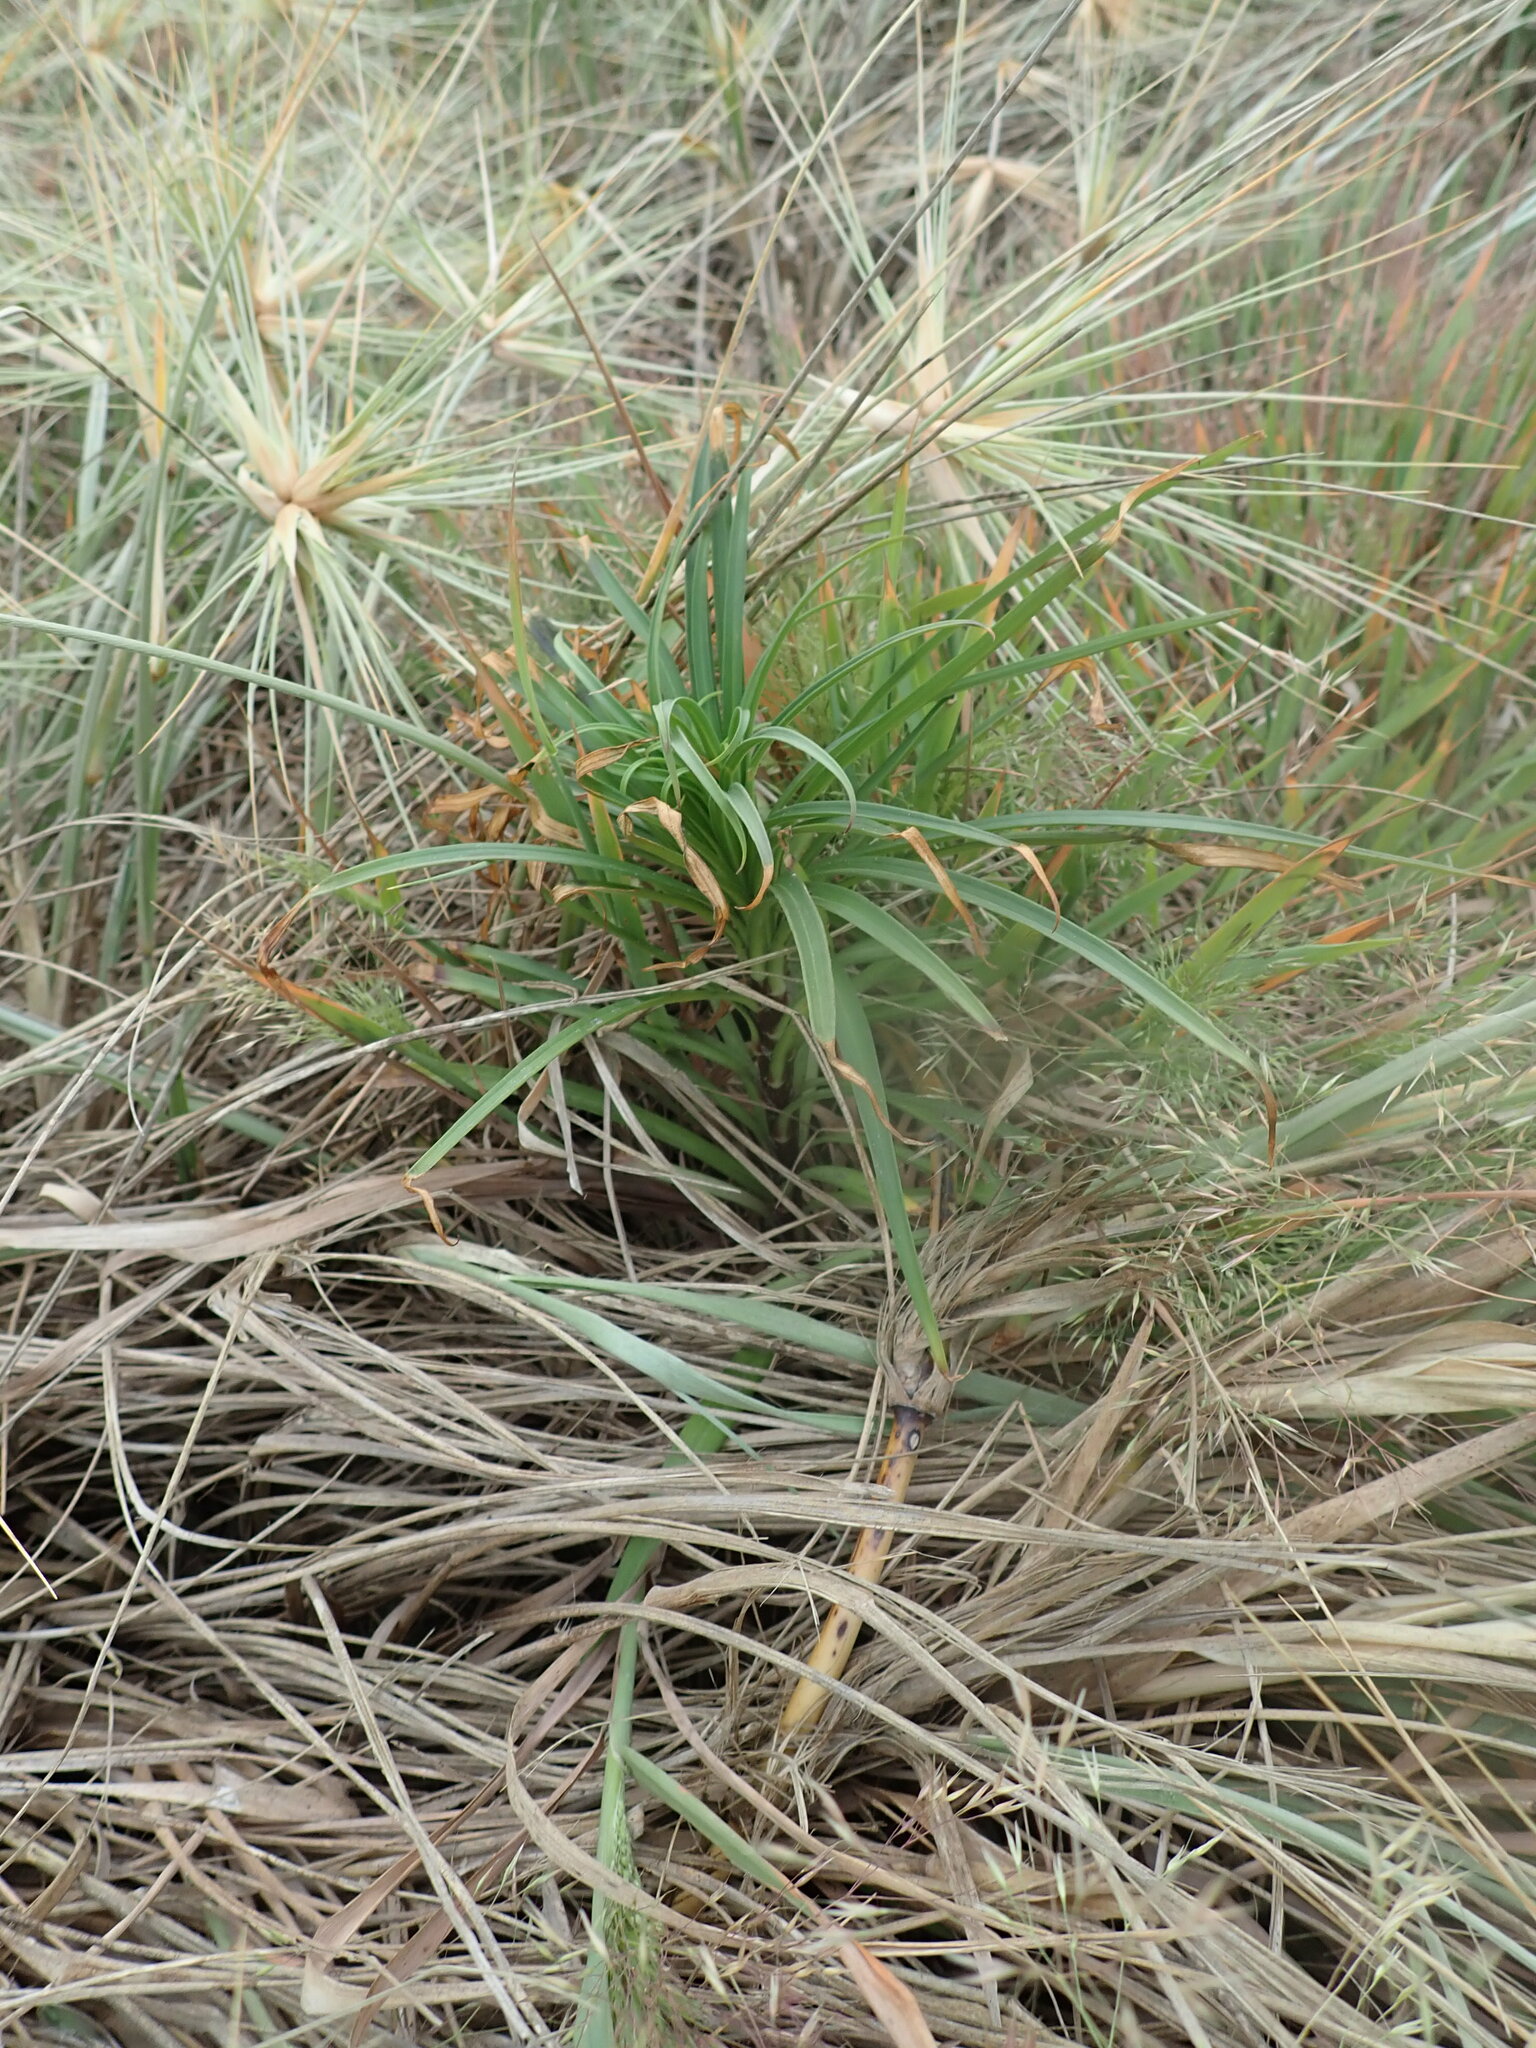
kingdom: Plantae
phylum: Tracheophyta
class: Liliopsida
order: Liliales
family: Liliaceae
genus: Lilium
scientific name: Lilium formosanum
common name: Formosa lily
